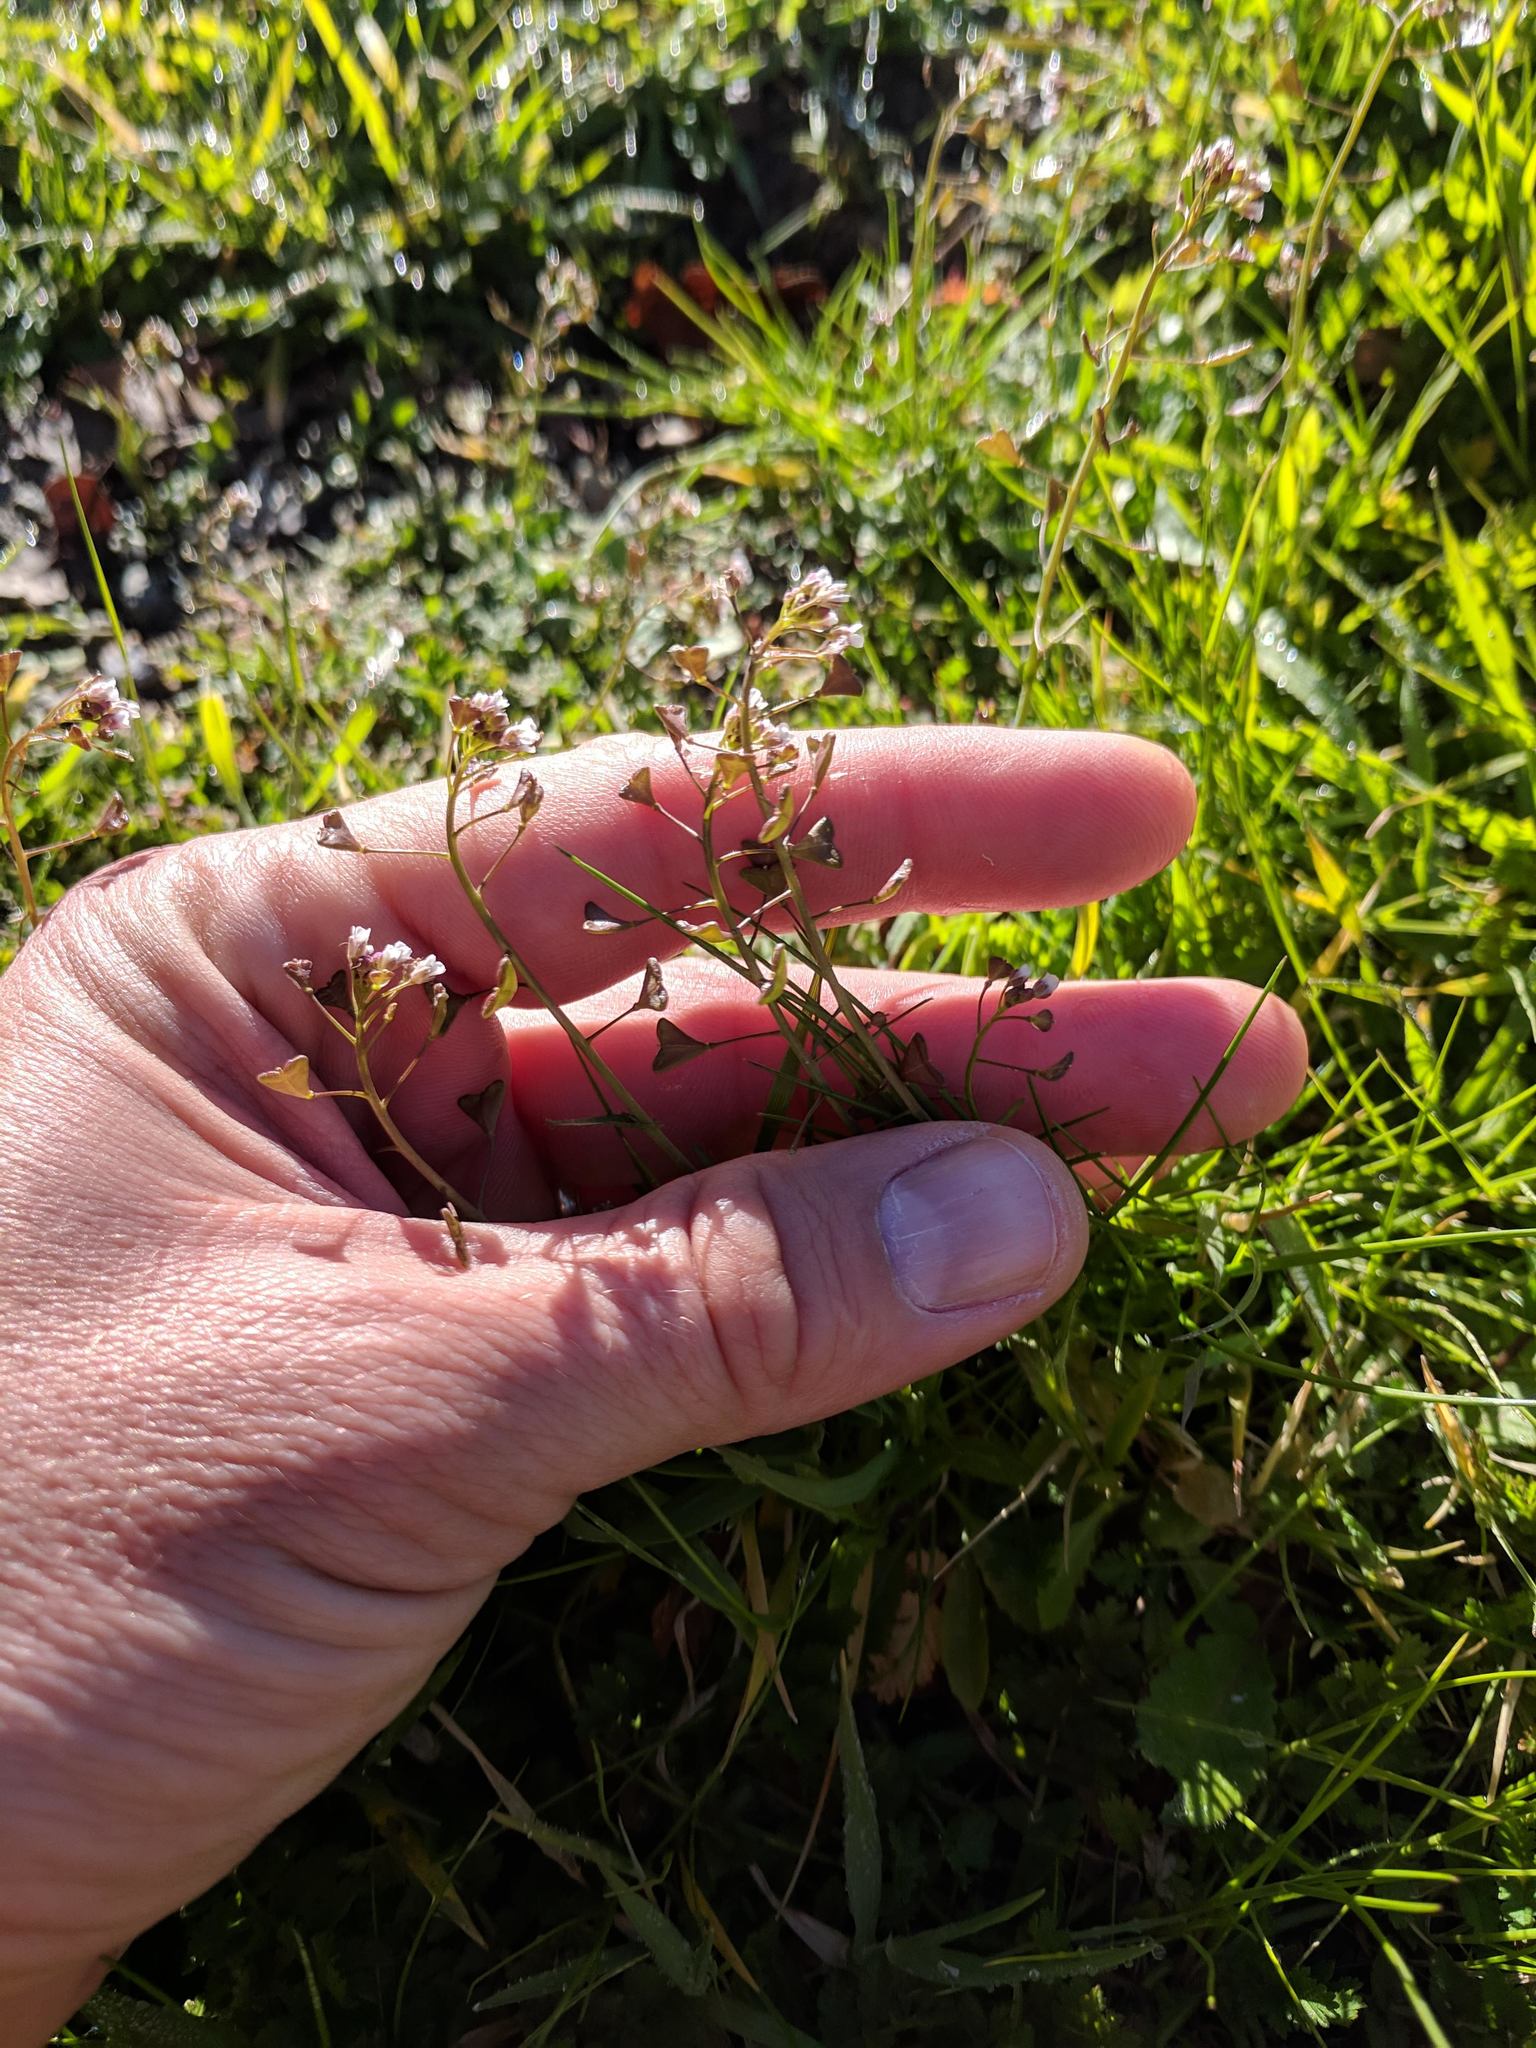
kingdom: Plantae
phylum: Tracheophyta
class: Magnoliopsida
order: Brassicales
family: Brassicaceae
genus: Capsella
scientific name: Capsella bursa-pastoris
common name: Shepherd's purse
